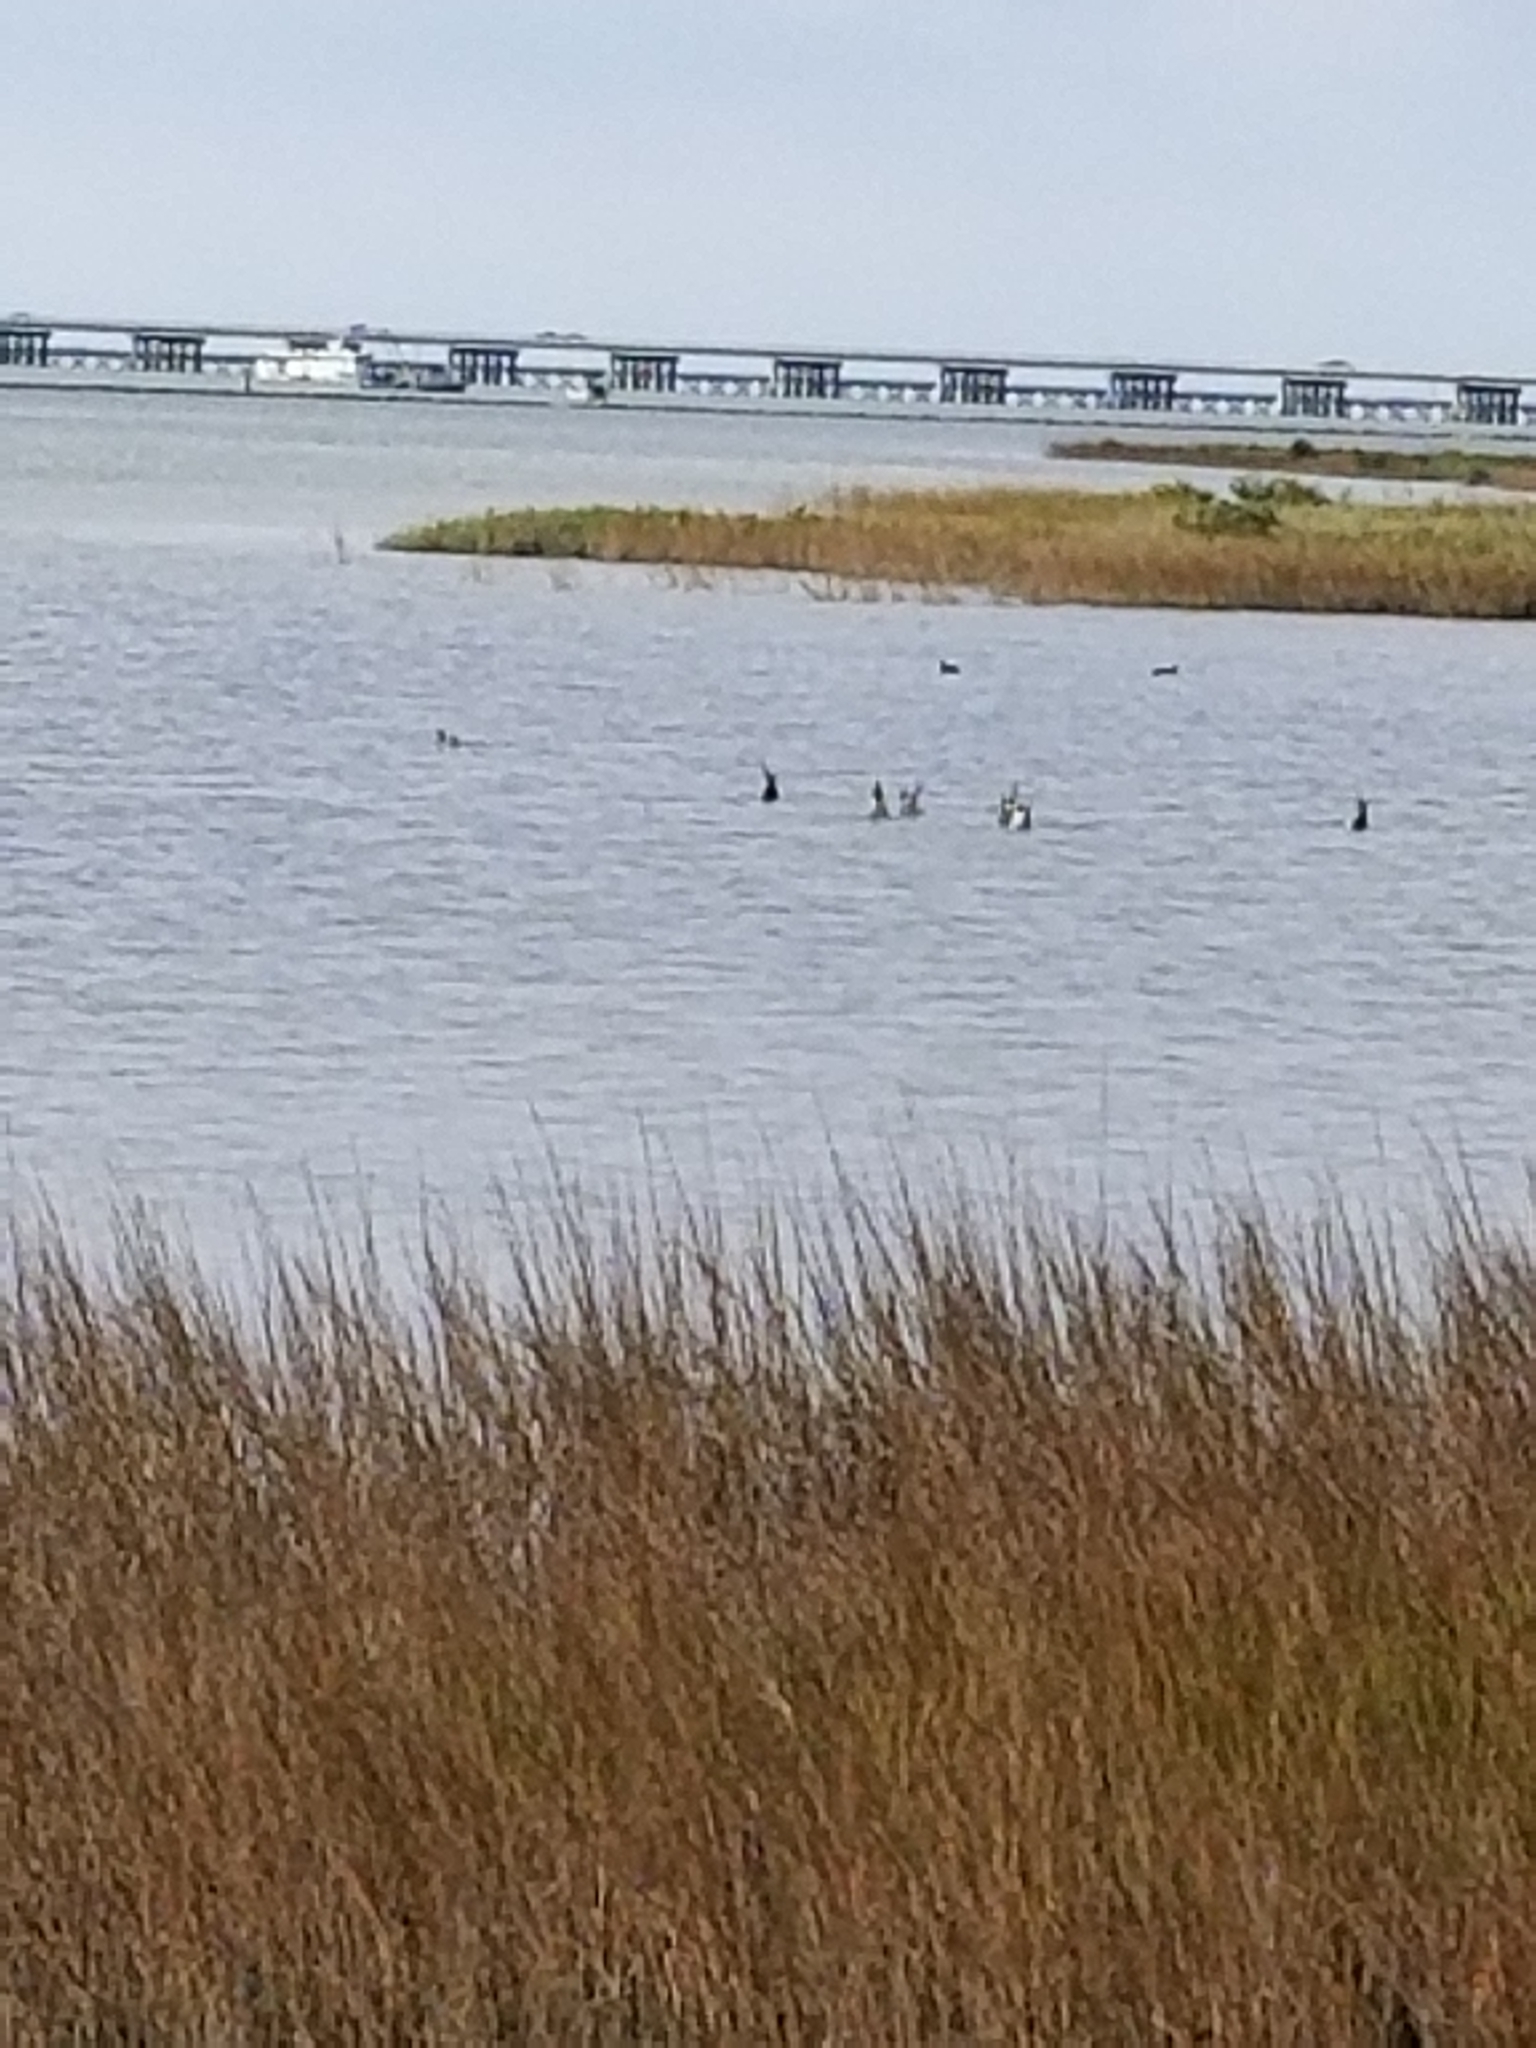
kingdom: Animalia
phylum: Chordata
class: Aves
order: Anseriformes
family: Anatidae
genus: Anas
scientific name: Anas acuta
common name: Northern pintail
